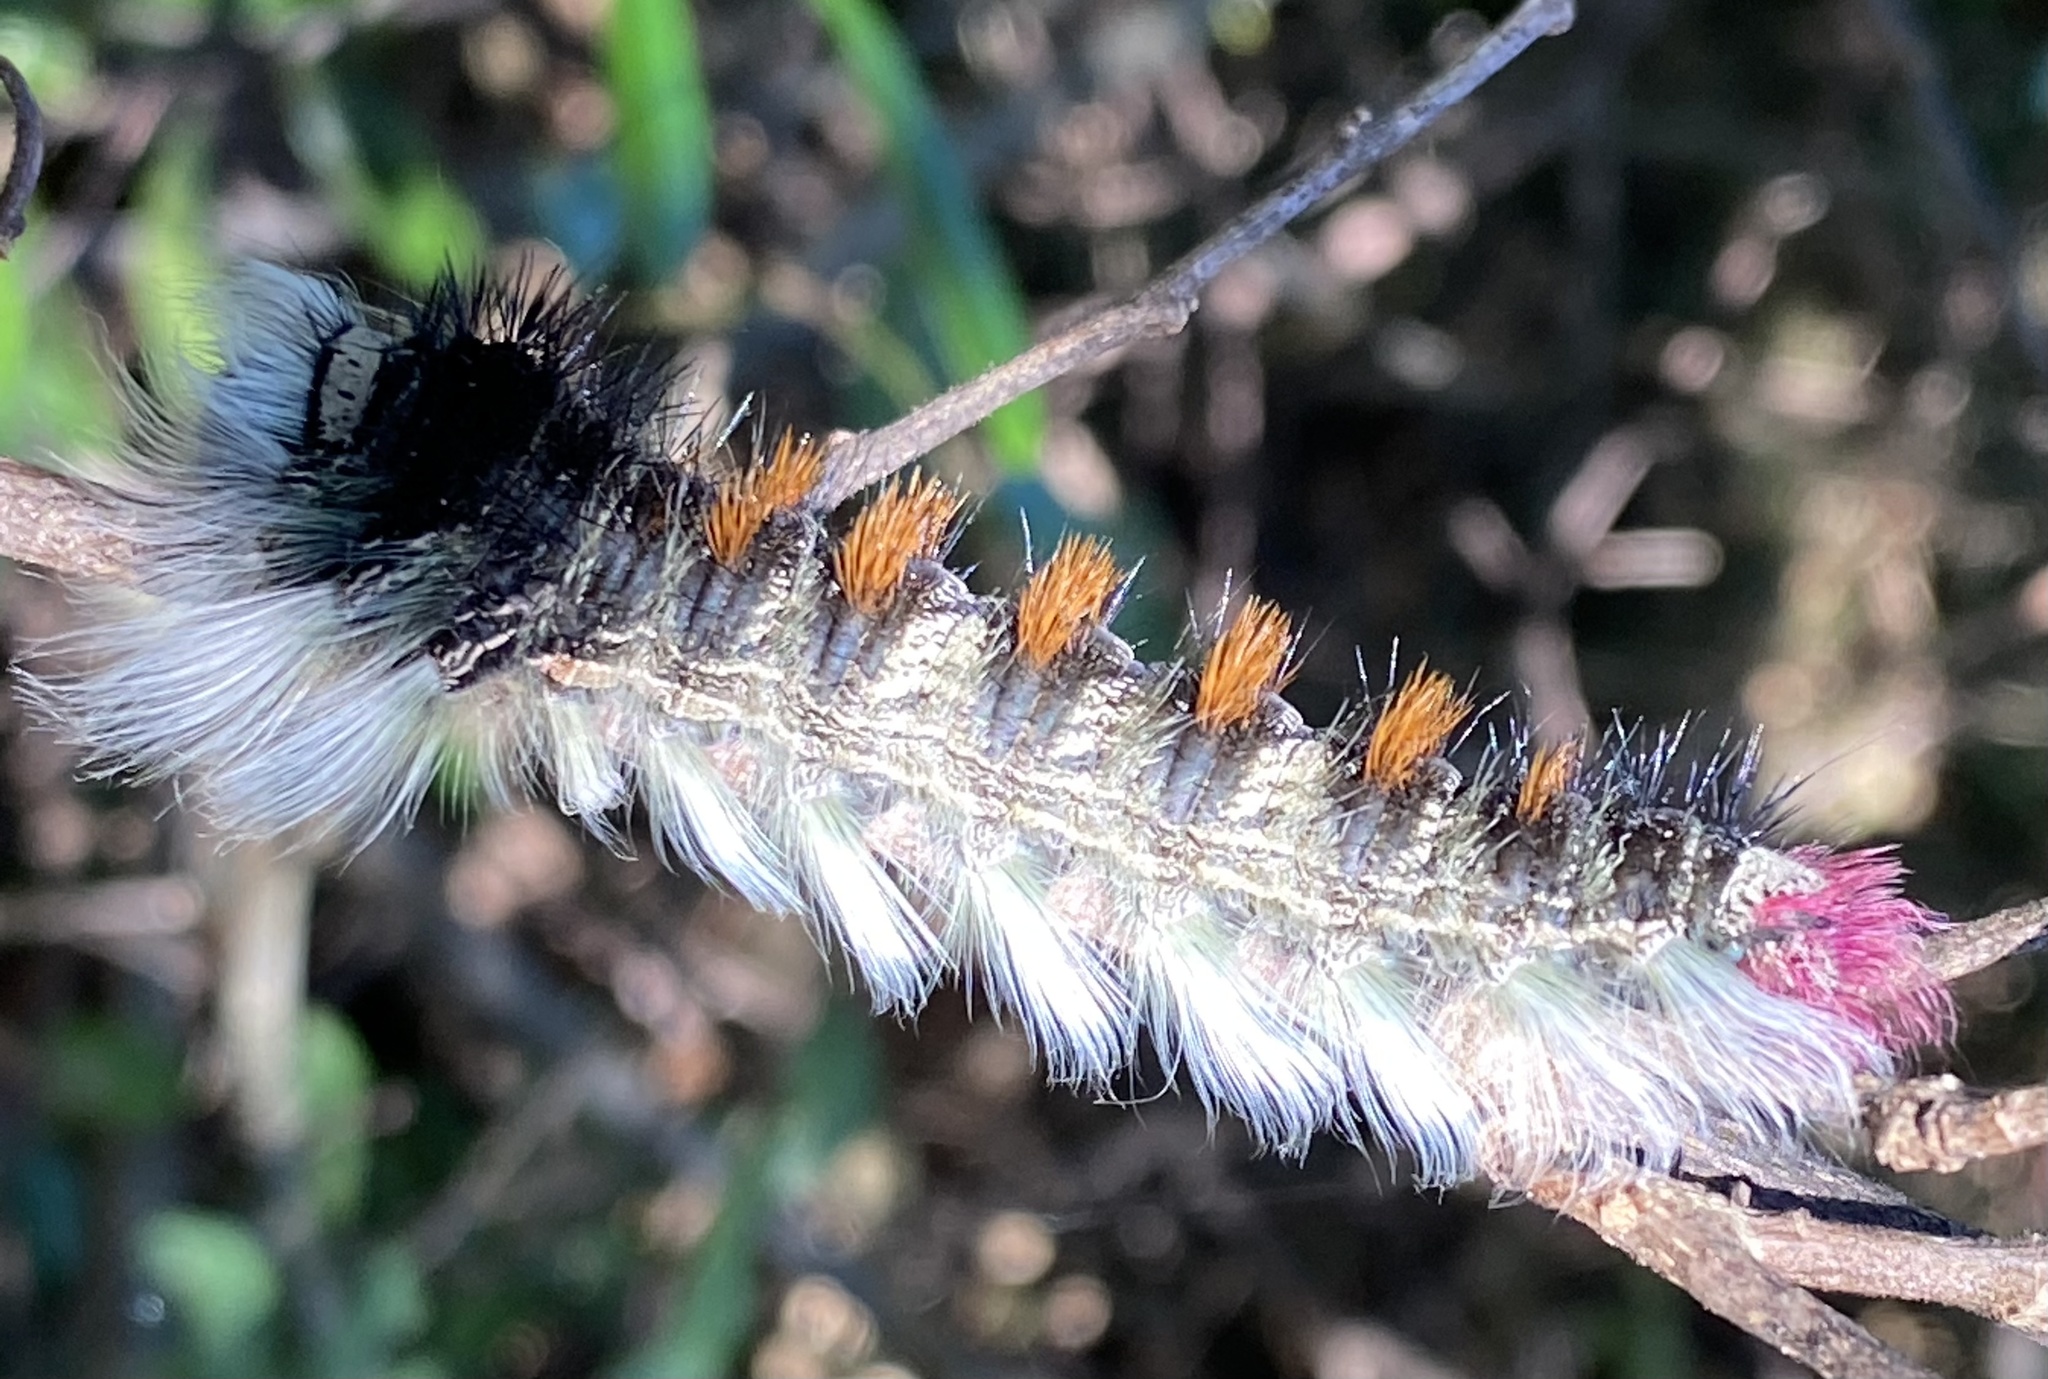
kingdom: Animalia
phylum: Arthropoda
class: Insecta
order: Lepidoptera
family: Lasiocampidae
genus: Catalebeda
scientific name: Catalebeda cuneilinea
